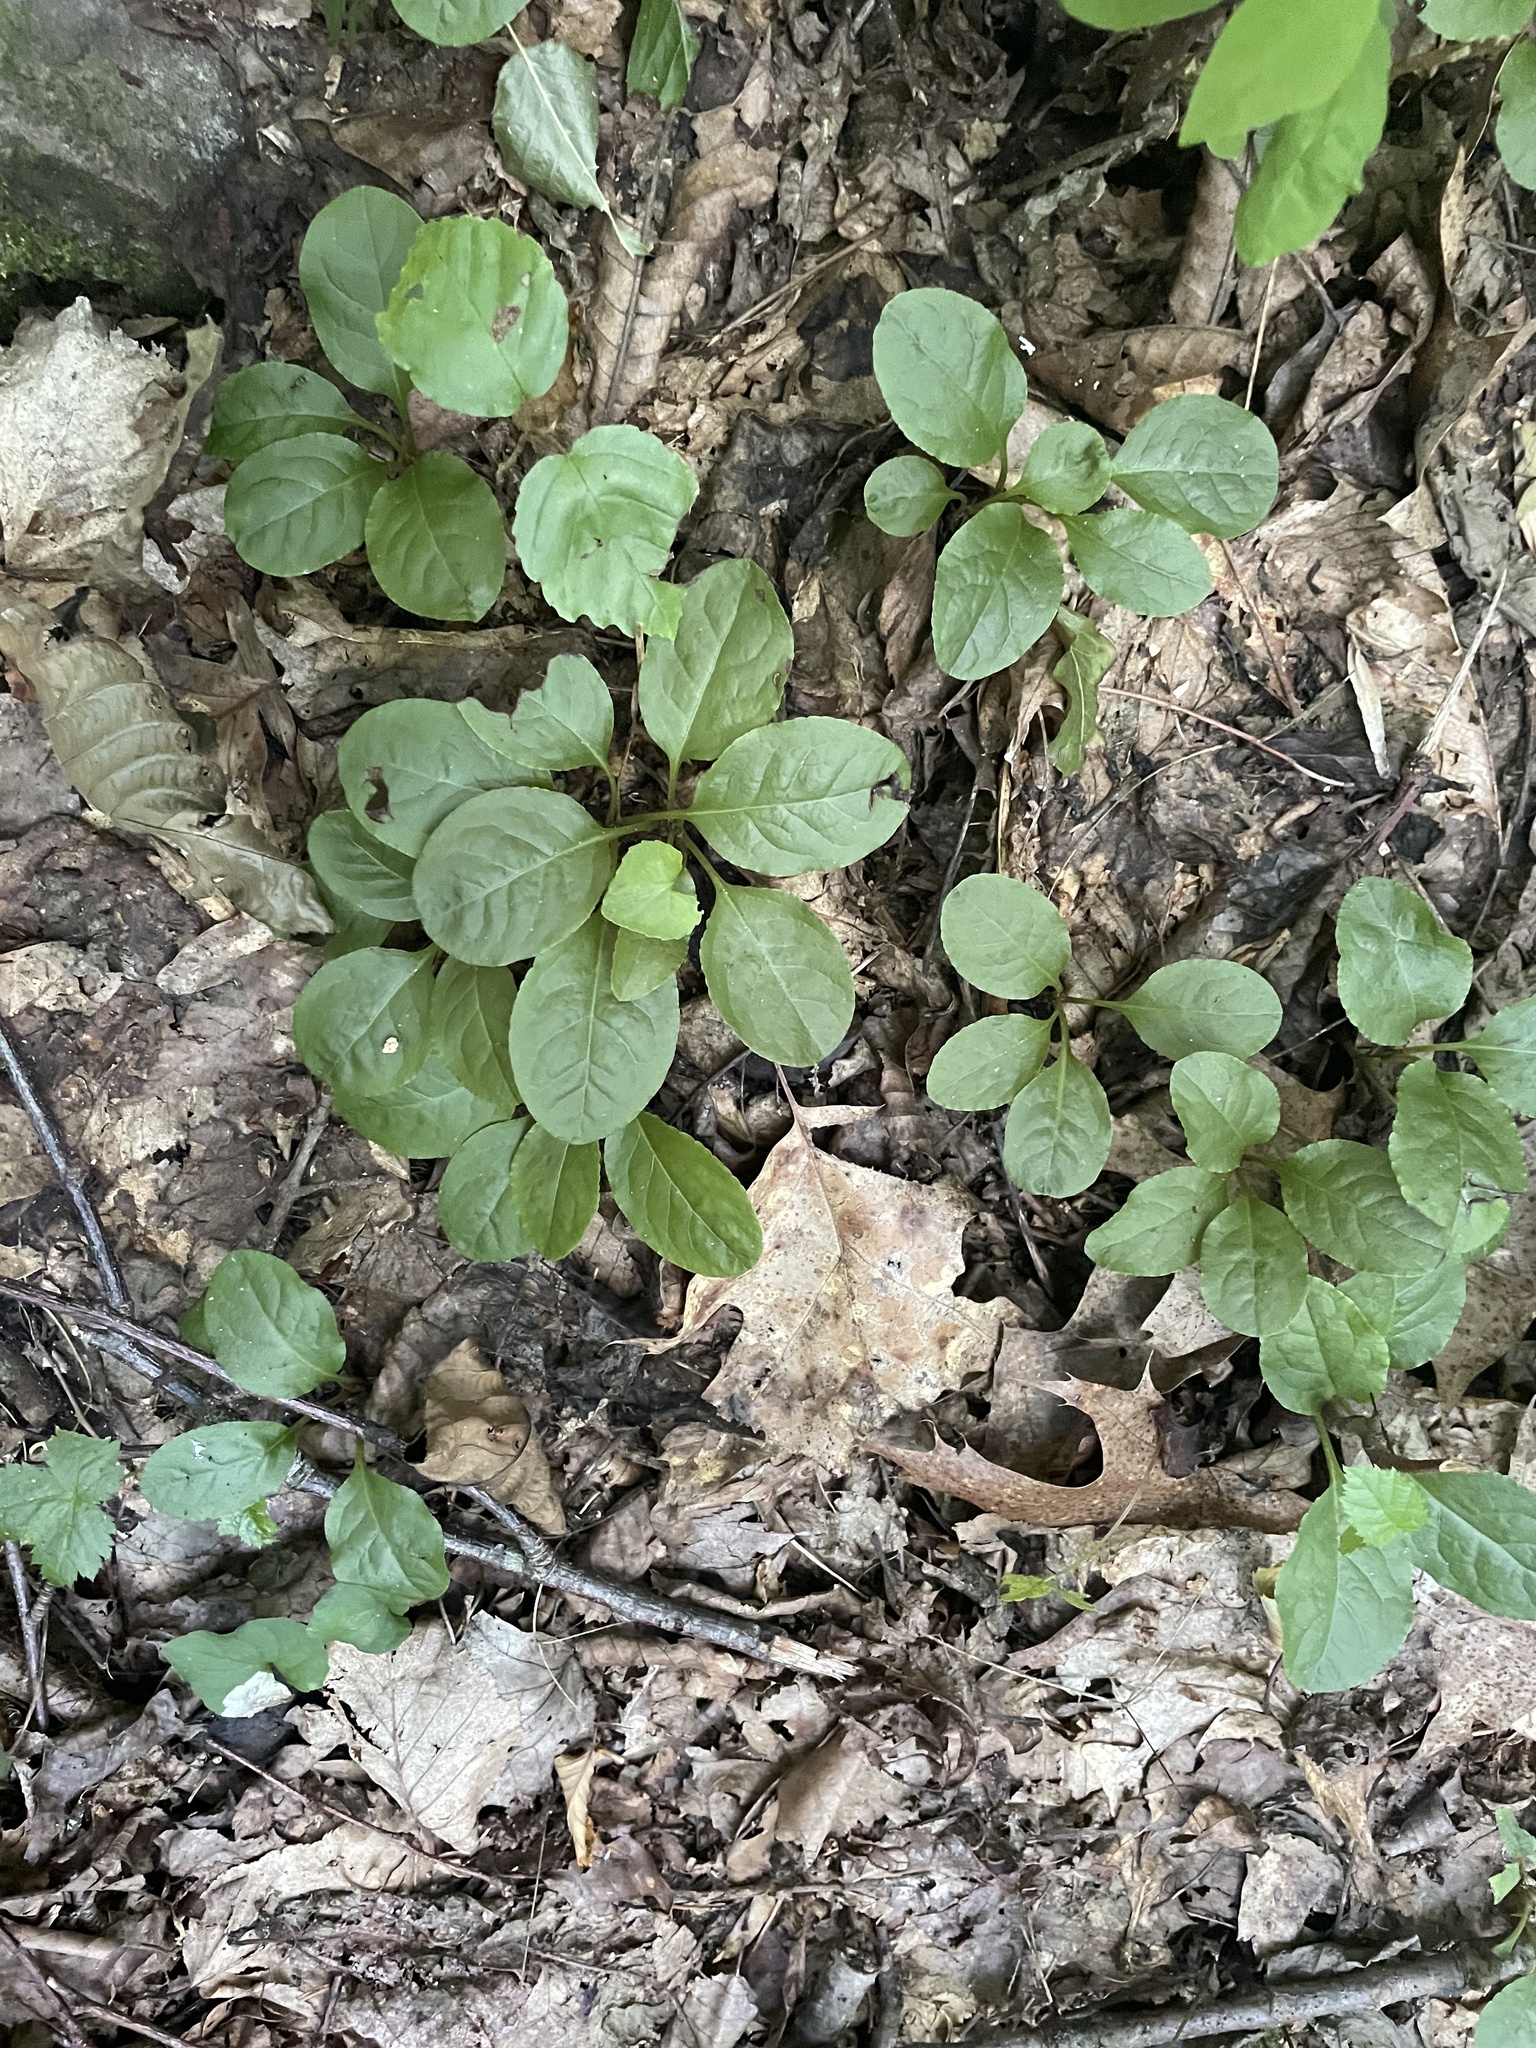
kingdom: Plantae
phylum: Tracheophyta
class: Magnoliopsida
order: Ericales
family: Ericaceae
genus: Pyrola
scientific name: Pyrola elliptica
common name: Shinleaf
